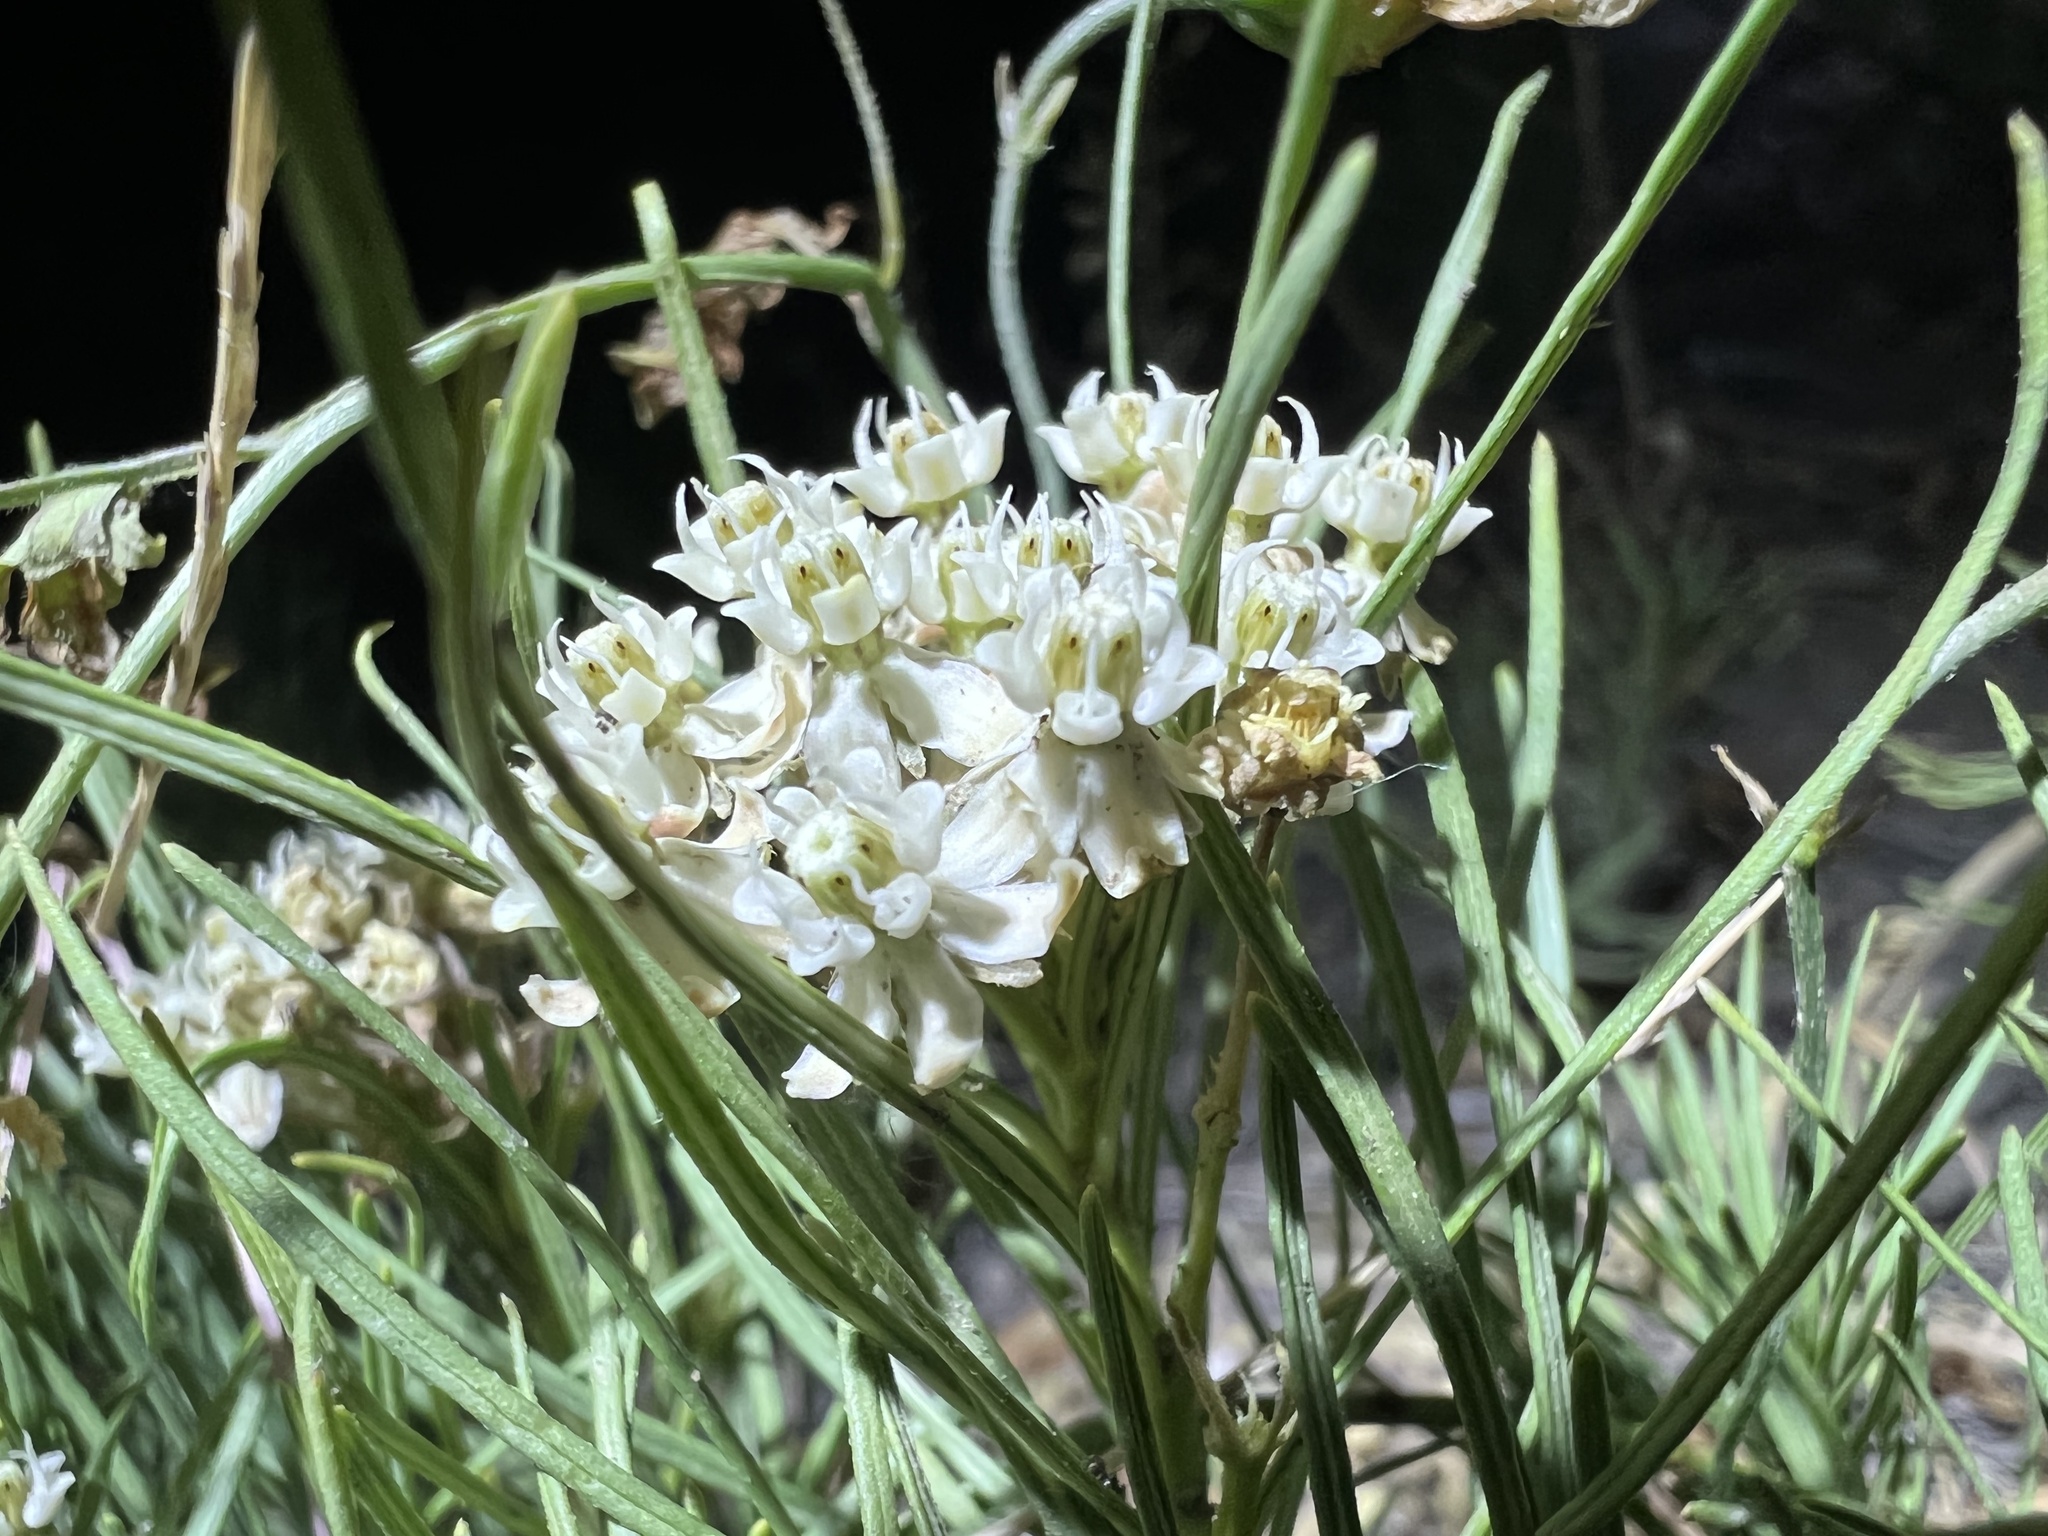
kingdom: Plantae
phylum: Tracheophyta
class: Magnoliopsida
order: Gentianales
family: Apocynaceae
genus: Asclepias
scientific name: Asclepias pumila
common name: Dwarf milkweed
